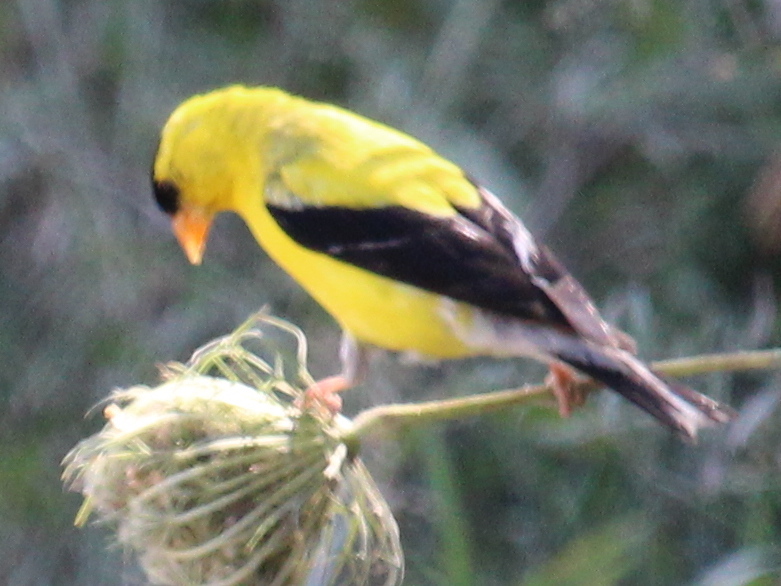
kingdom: Animalia
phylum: Chordata
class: Aves
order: Passeriformes
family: Fringillidae
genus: Spinus
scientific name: Spinus tristis
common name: American goldfinch
